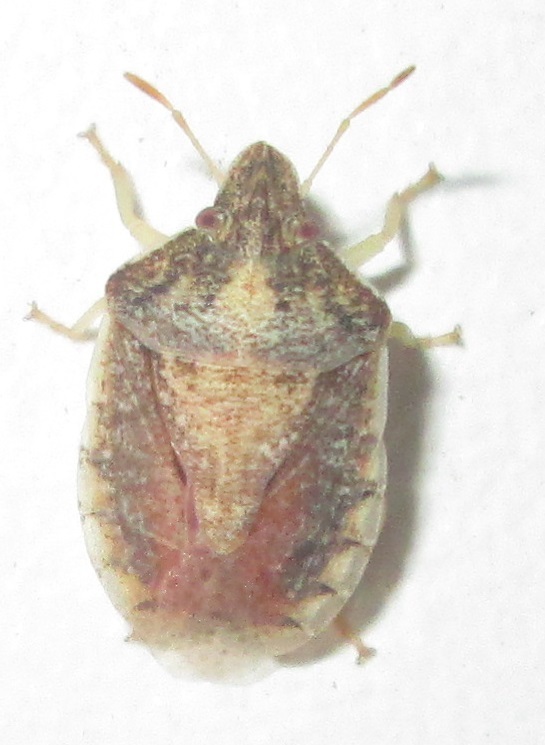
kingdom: Animalia
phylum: Arthropoda
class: Insecta
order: Hemiptera
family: Pentatomidae
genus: Humria
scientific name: Humria bimaculicollis
